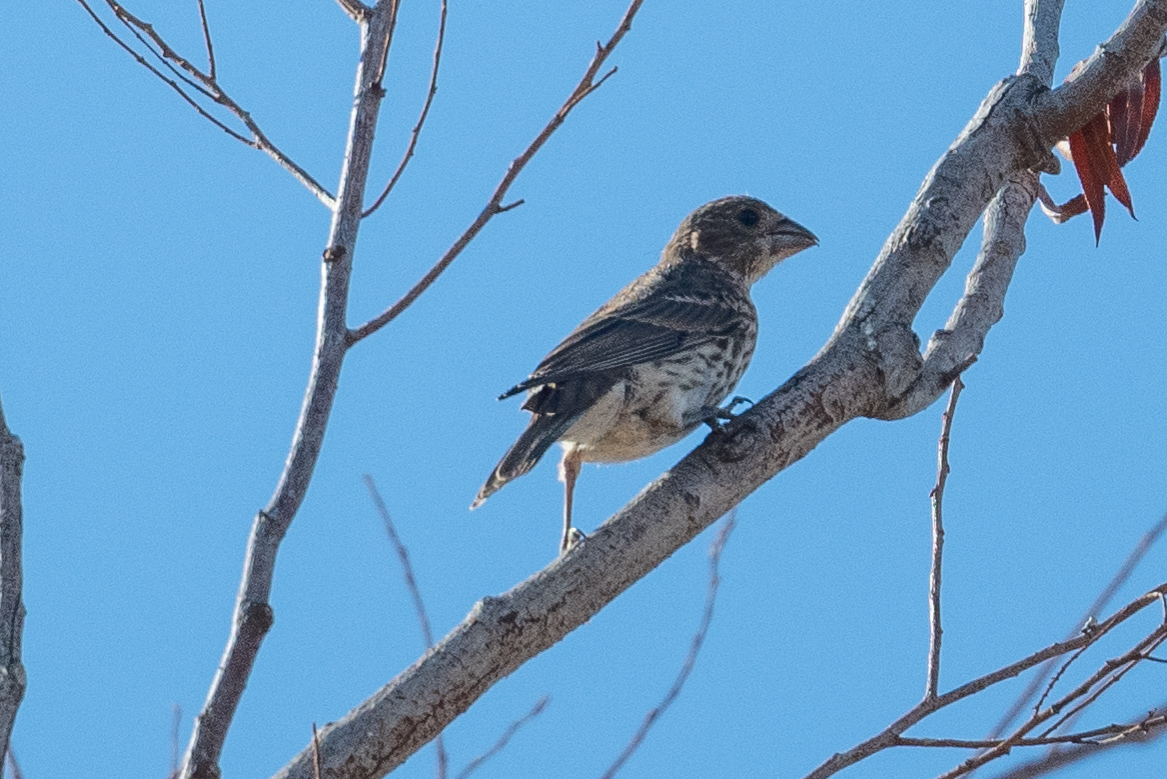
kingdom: Animalia
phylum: Chordata
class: Aves
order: Passeriformes
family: Fringillidae
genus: Haemorhous
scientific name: Haemorhous mexicanus
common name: House finch
